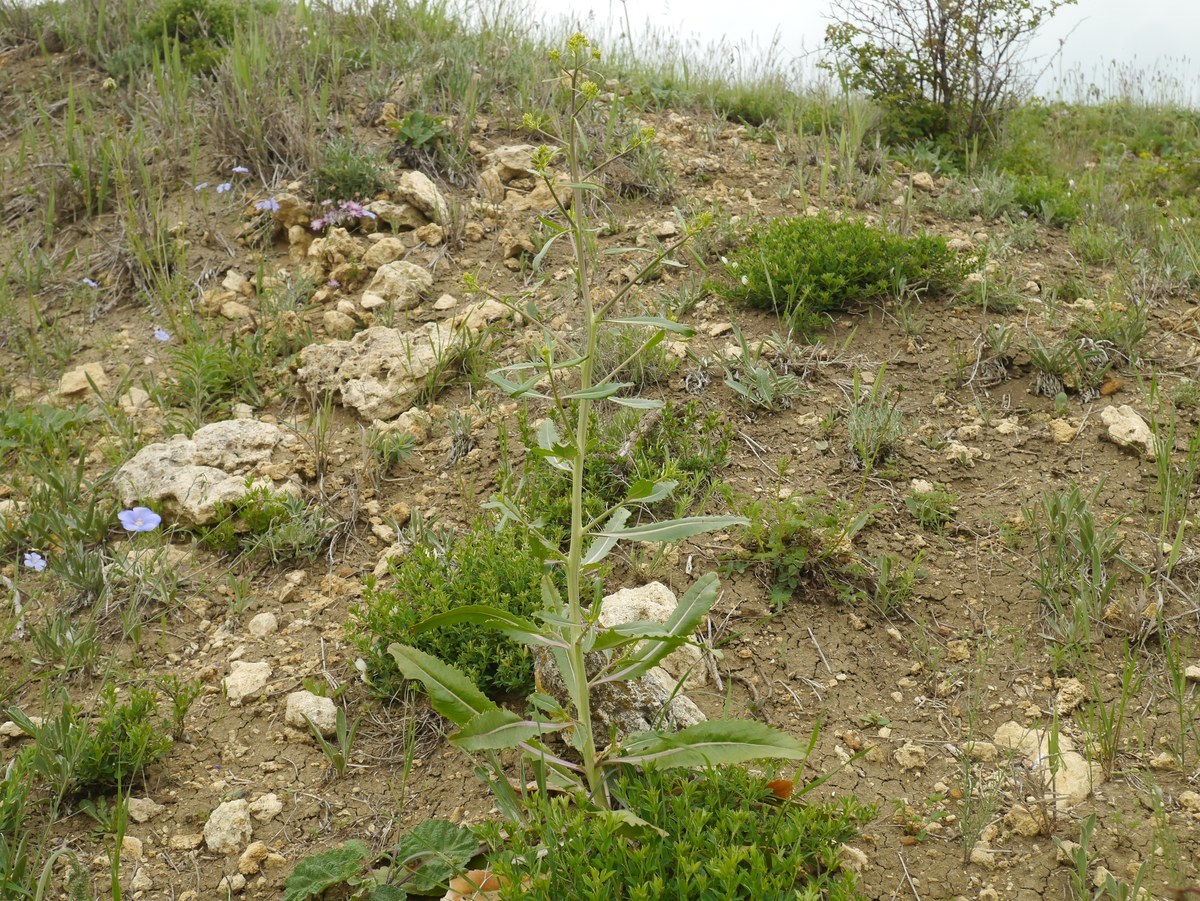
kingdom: Plantae
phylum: Tracheophyta
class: Magnoliopsida
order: Brassicales
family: Brassicaceae
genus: Brassica
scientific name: Brassica elongata
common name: Long-stalked rape
